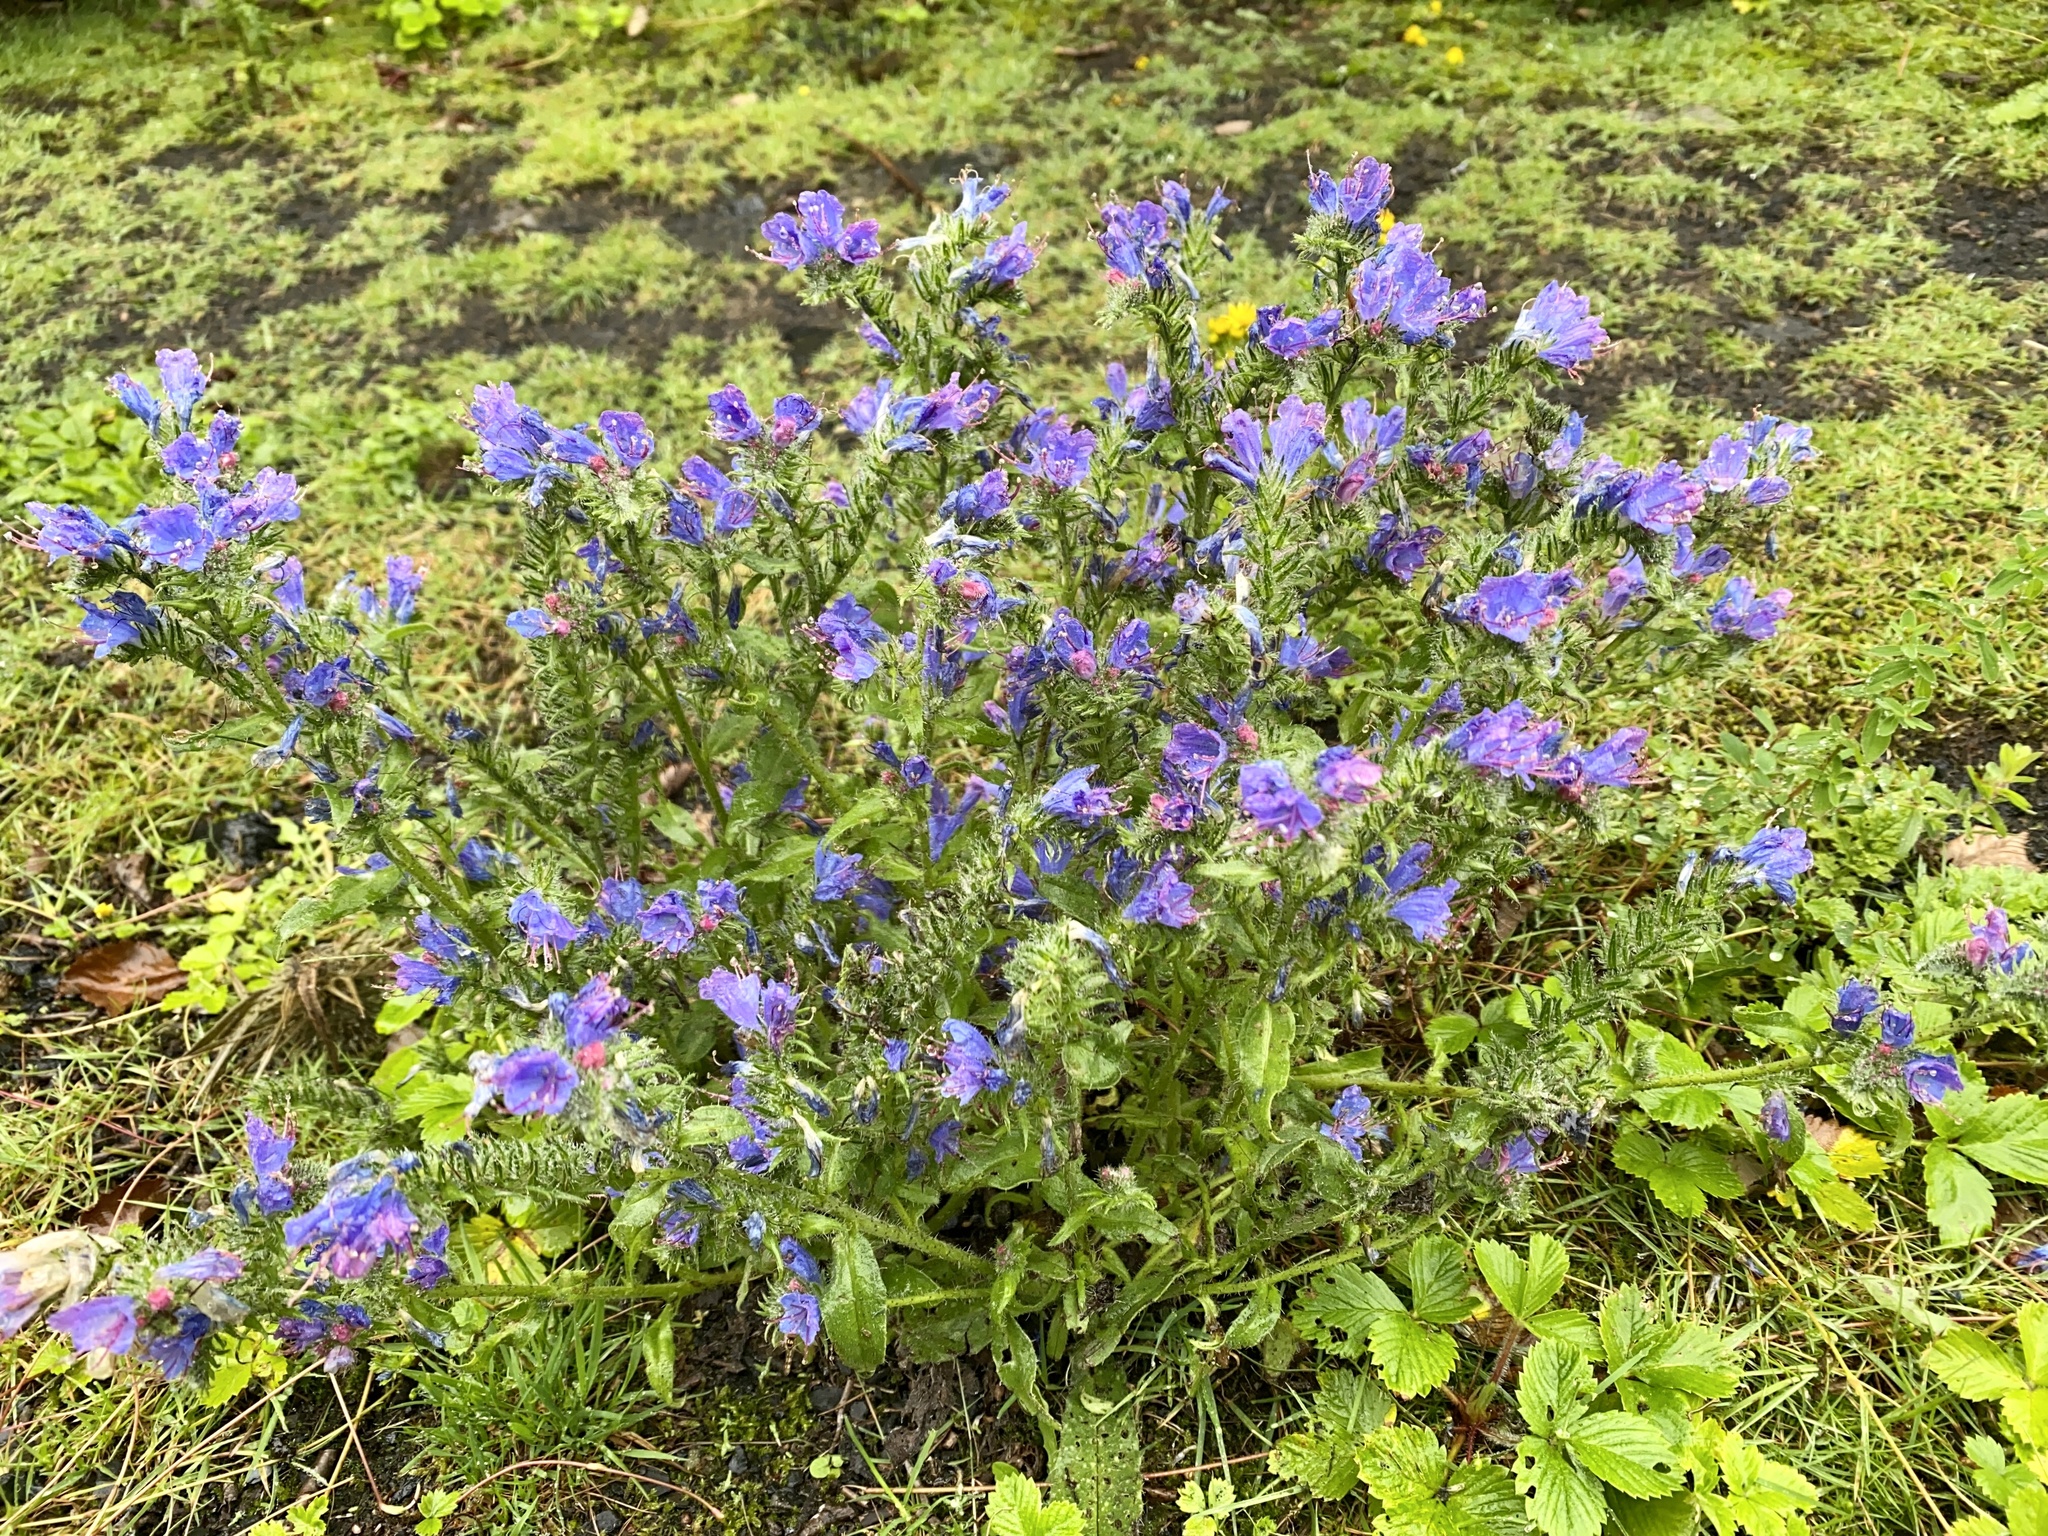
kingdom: Plantae
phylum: Tracheophyta
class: Magnoliopsida
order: Boraginales
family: Boraginaceae
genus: Echium
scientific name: Echium vulgare
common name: Common viper's bugloss
